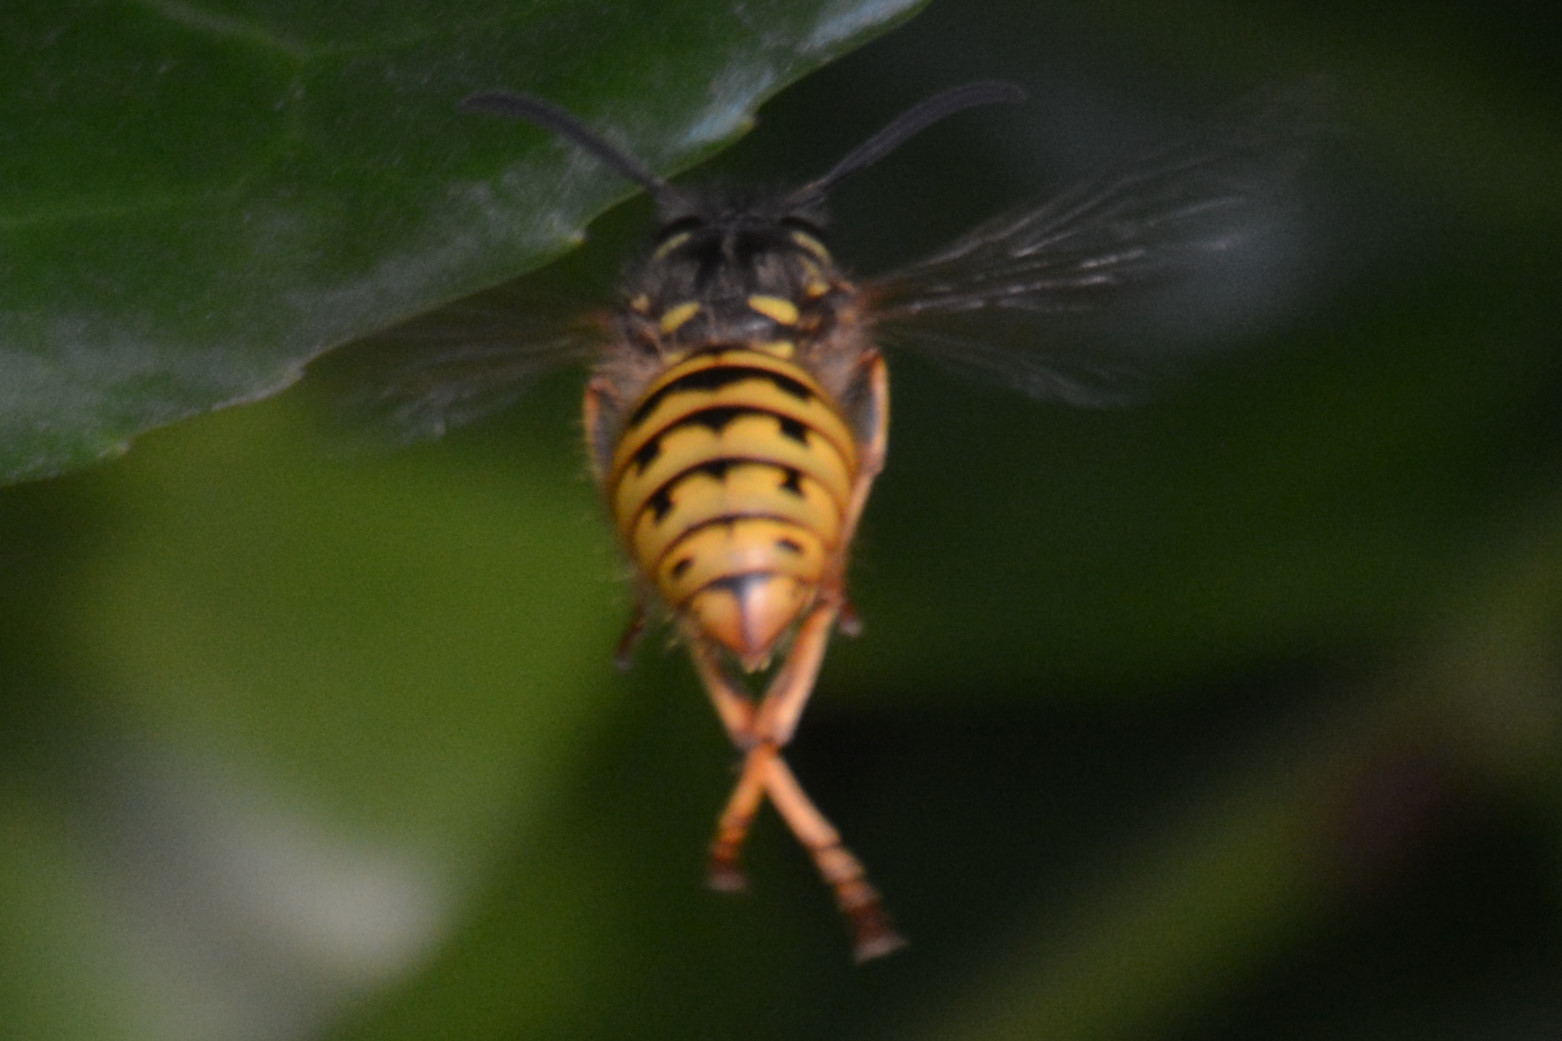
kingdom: Animalia
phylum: Arthropoda
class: Insecta
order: Hymenoptera
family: Vespidae
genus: Vespula
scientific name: Vespula vulgaris
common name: Common wasp
